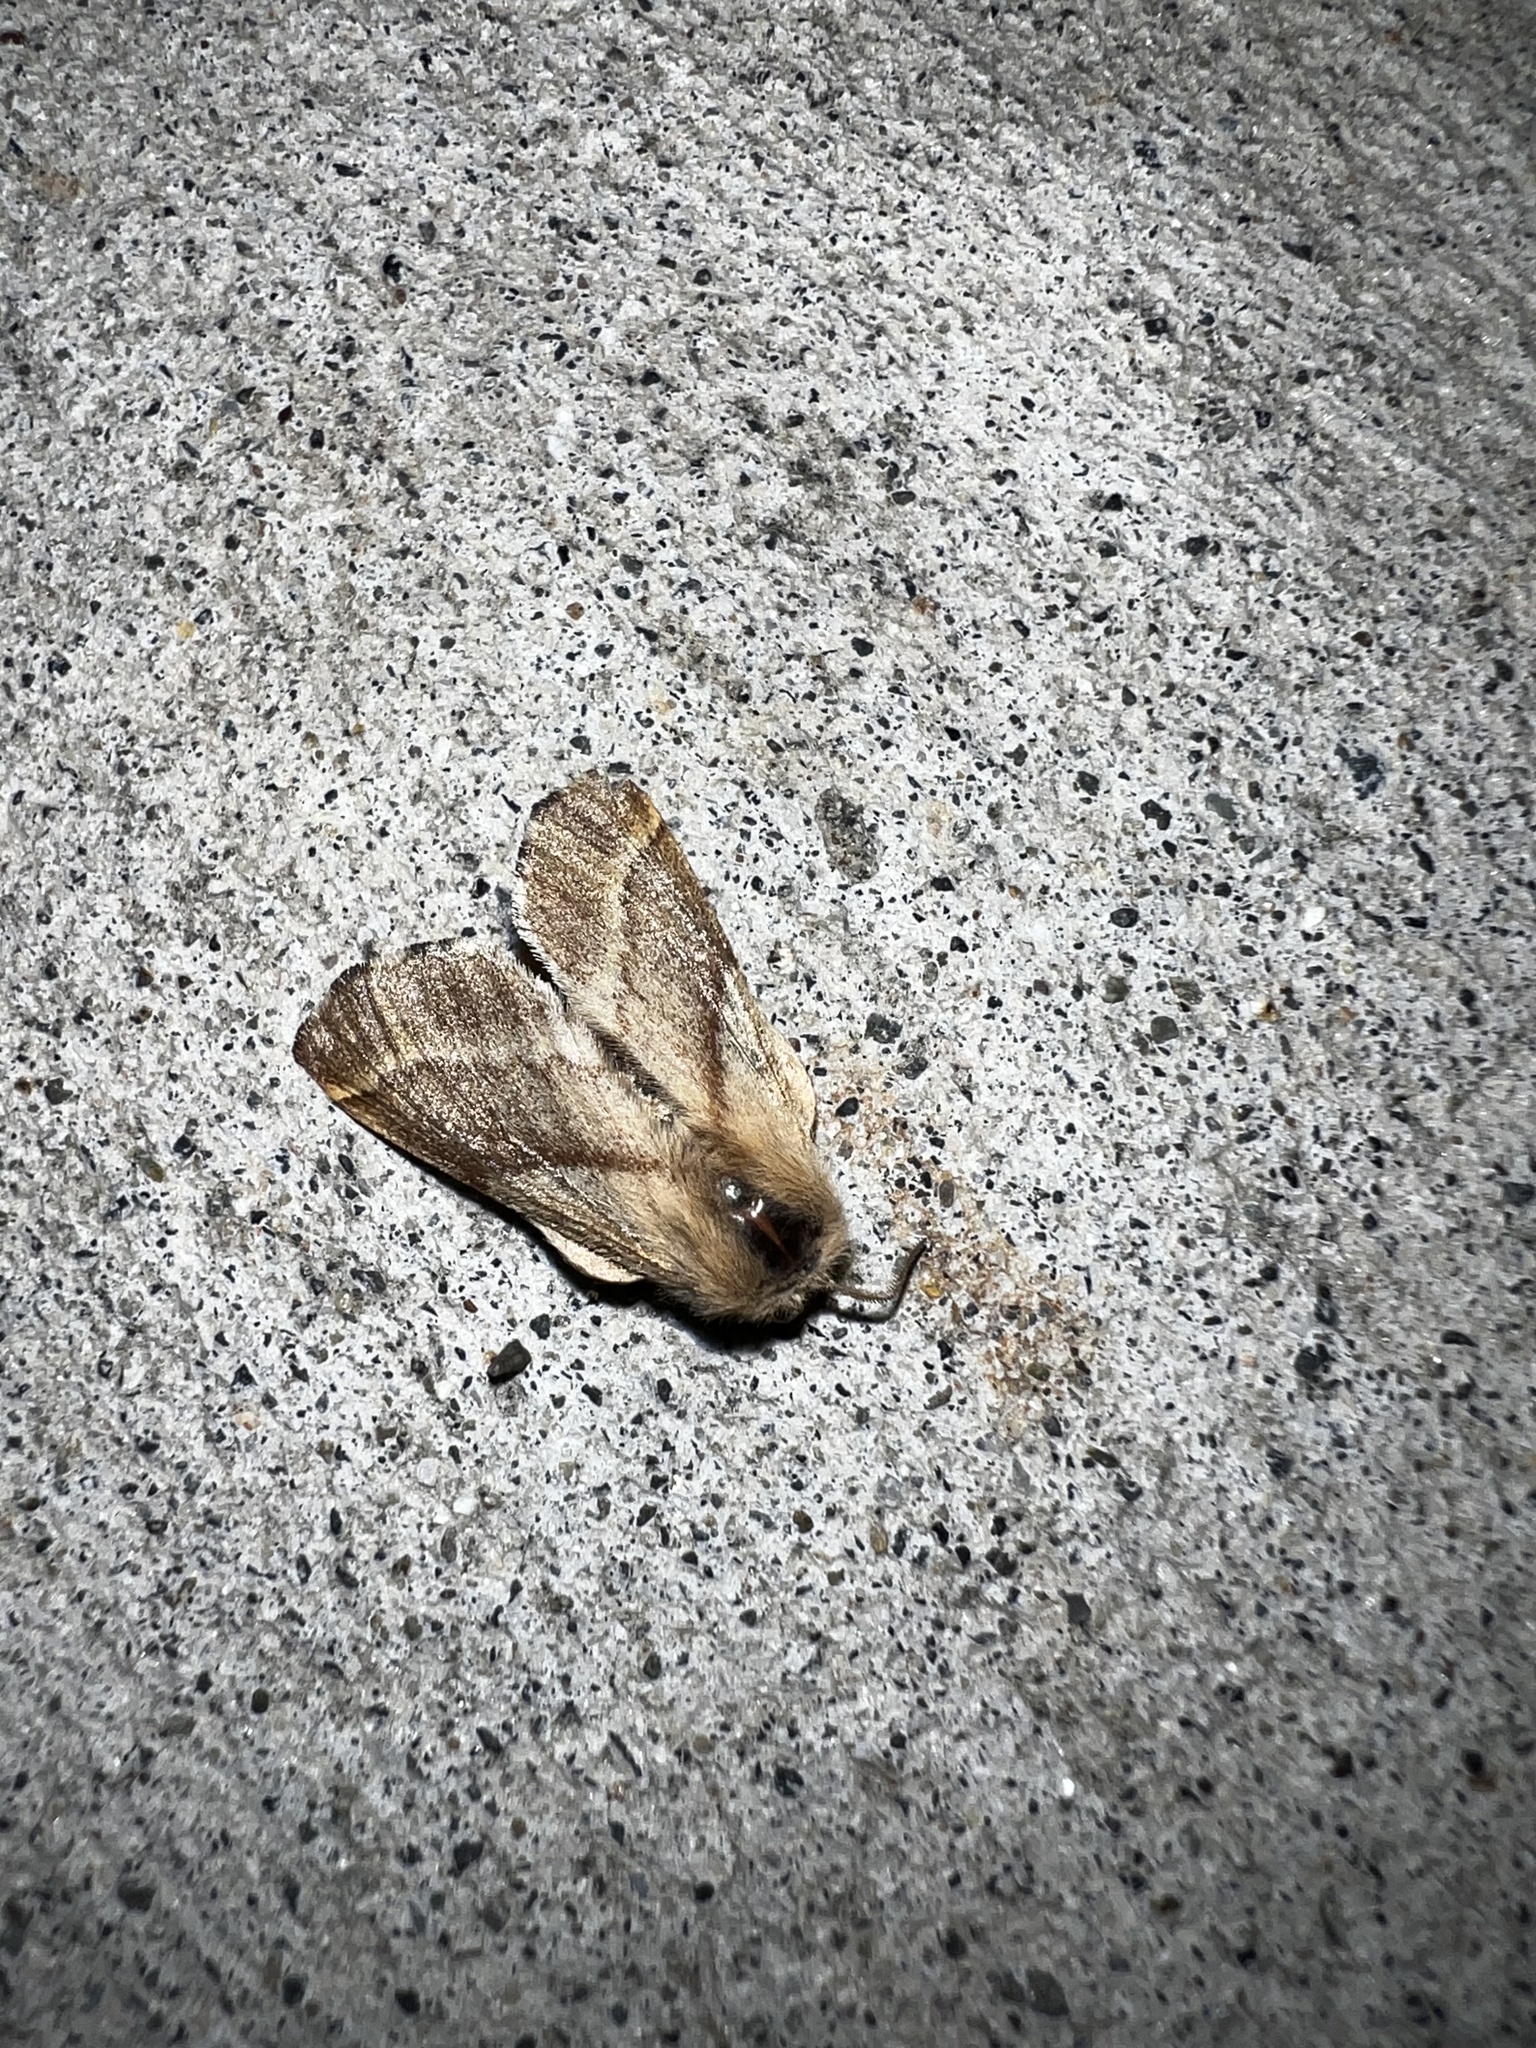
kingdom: Animalia
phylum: Arthropoda
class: Insecta
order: Lepidoptera
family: Lasiocampidae
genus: Malacosoma
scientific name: Malacosoma californica
